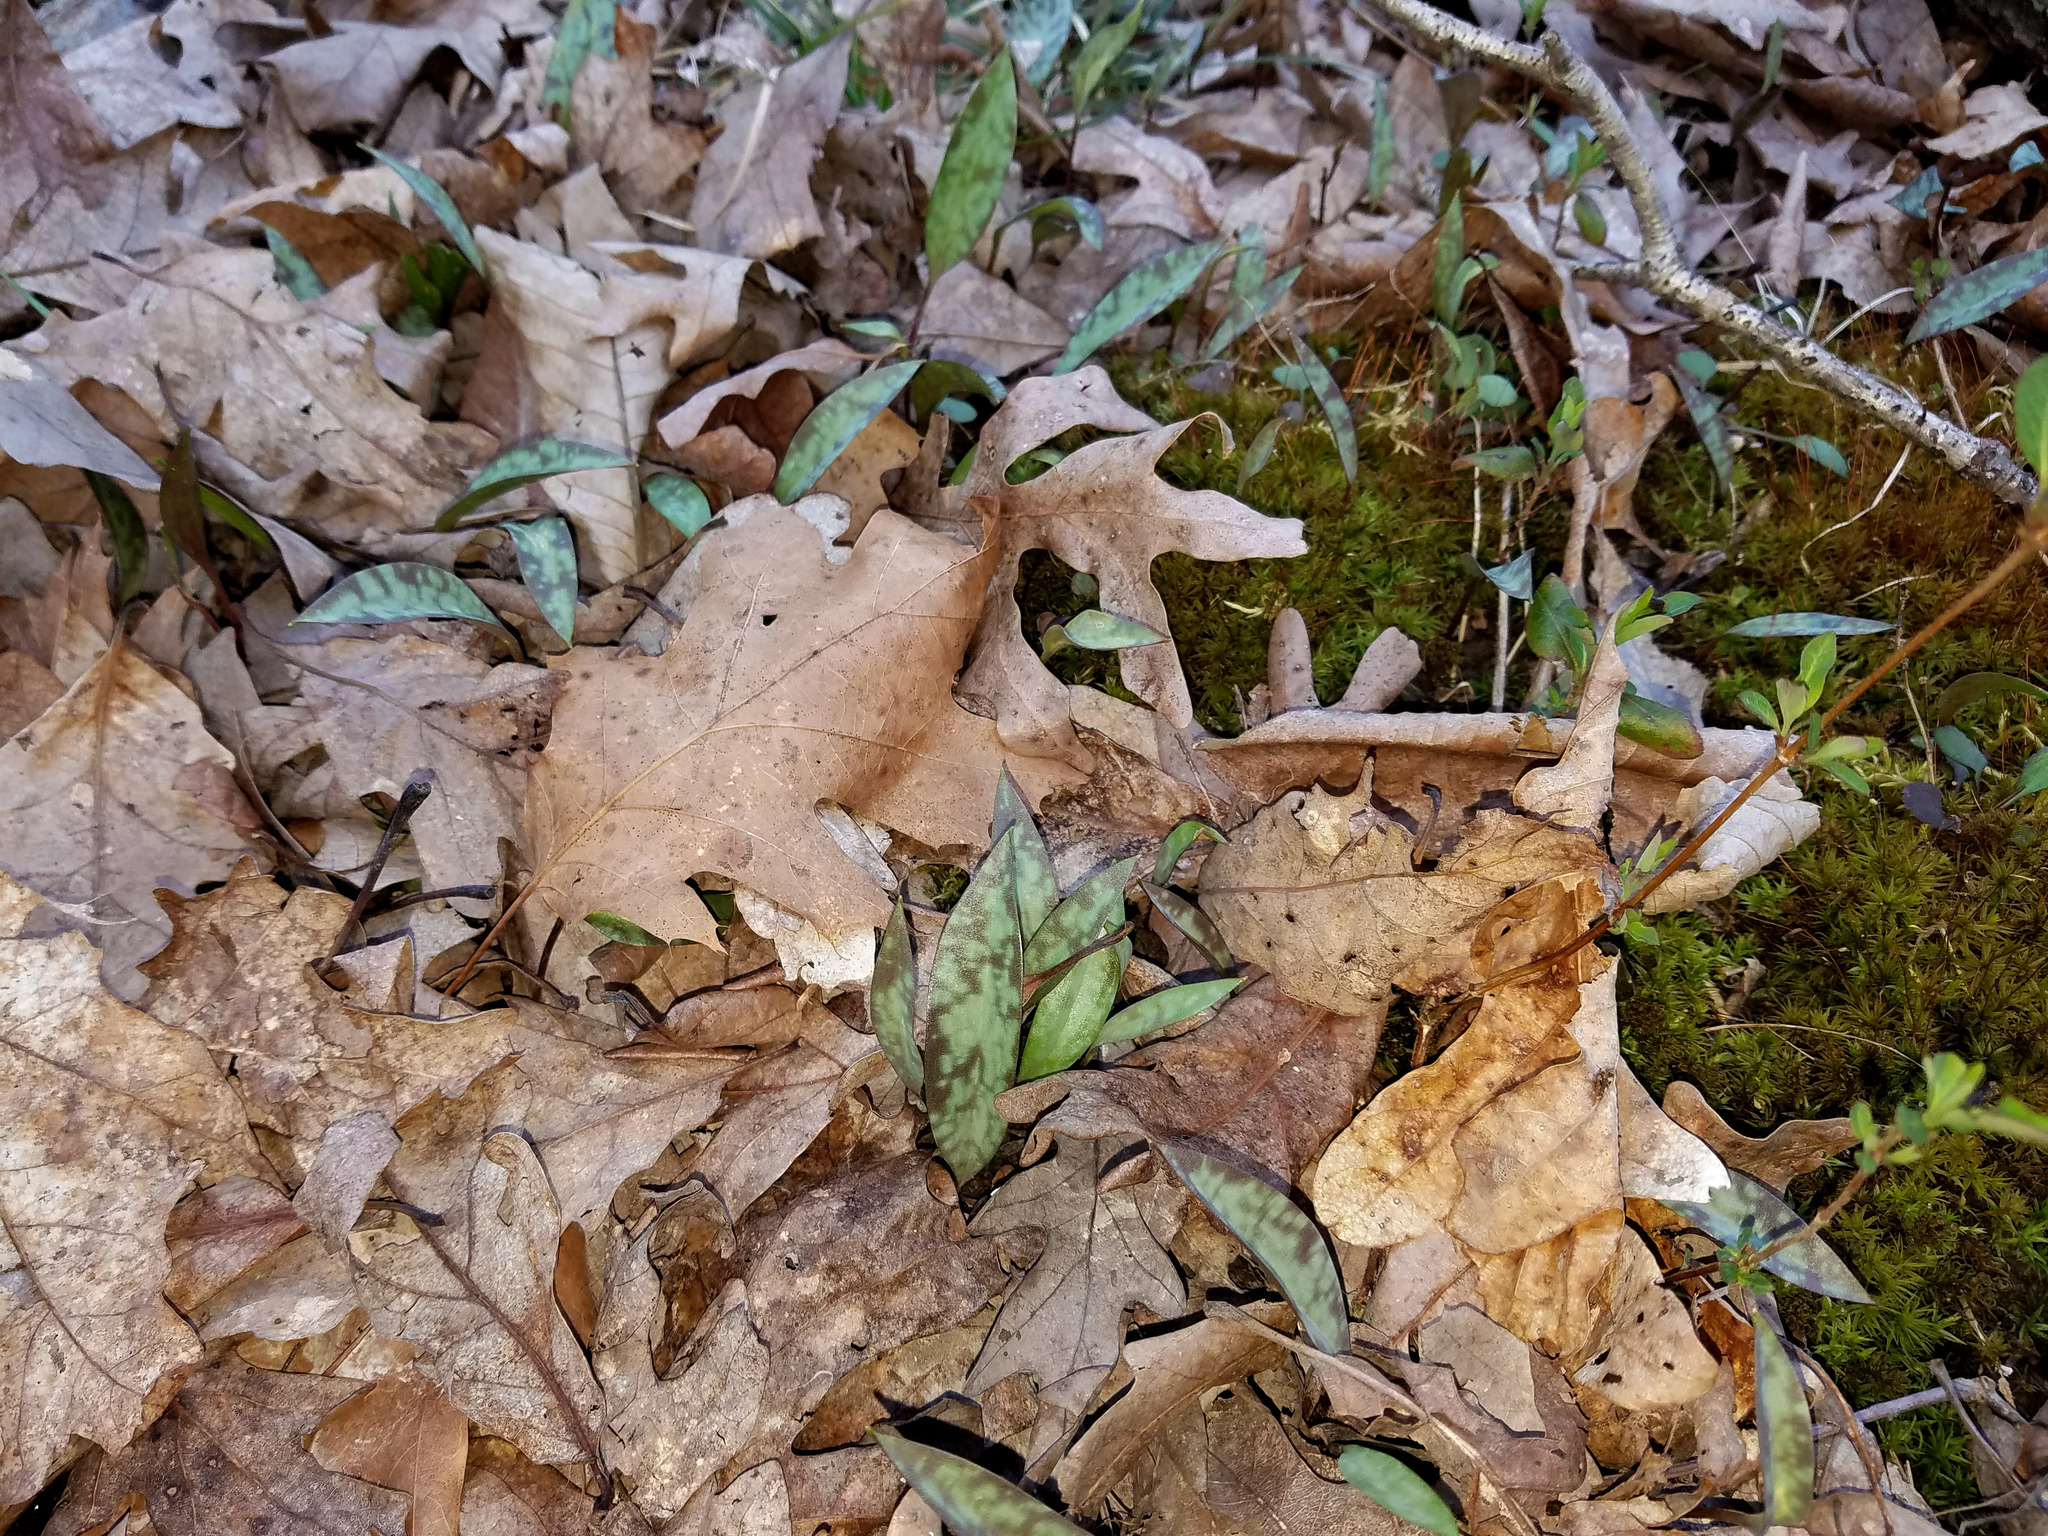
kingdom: Plantae
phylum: Tracheophyta
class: Liliopsida
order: Liliales
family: Liliaceae
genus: Erythronium
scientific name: Erythronium americanum
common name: Yellow adder's-tongue
